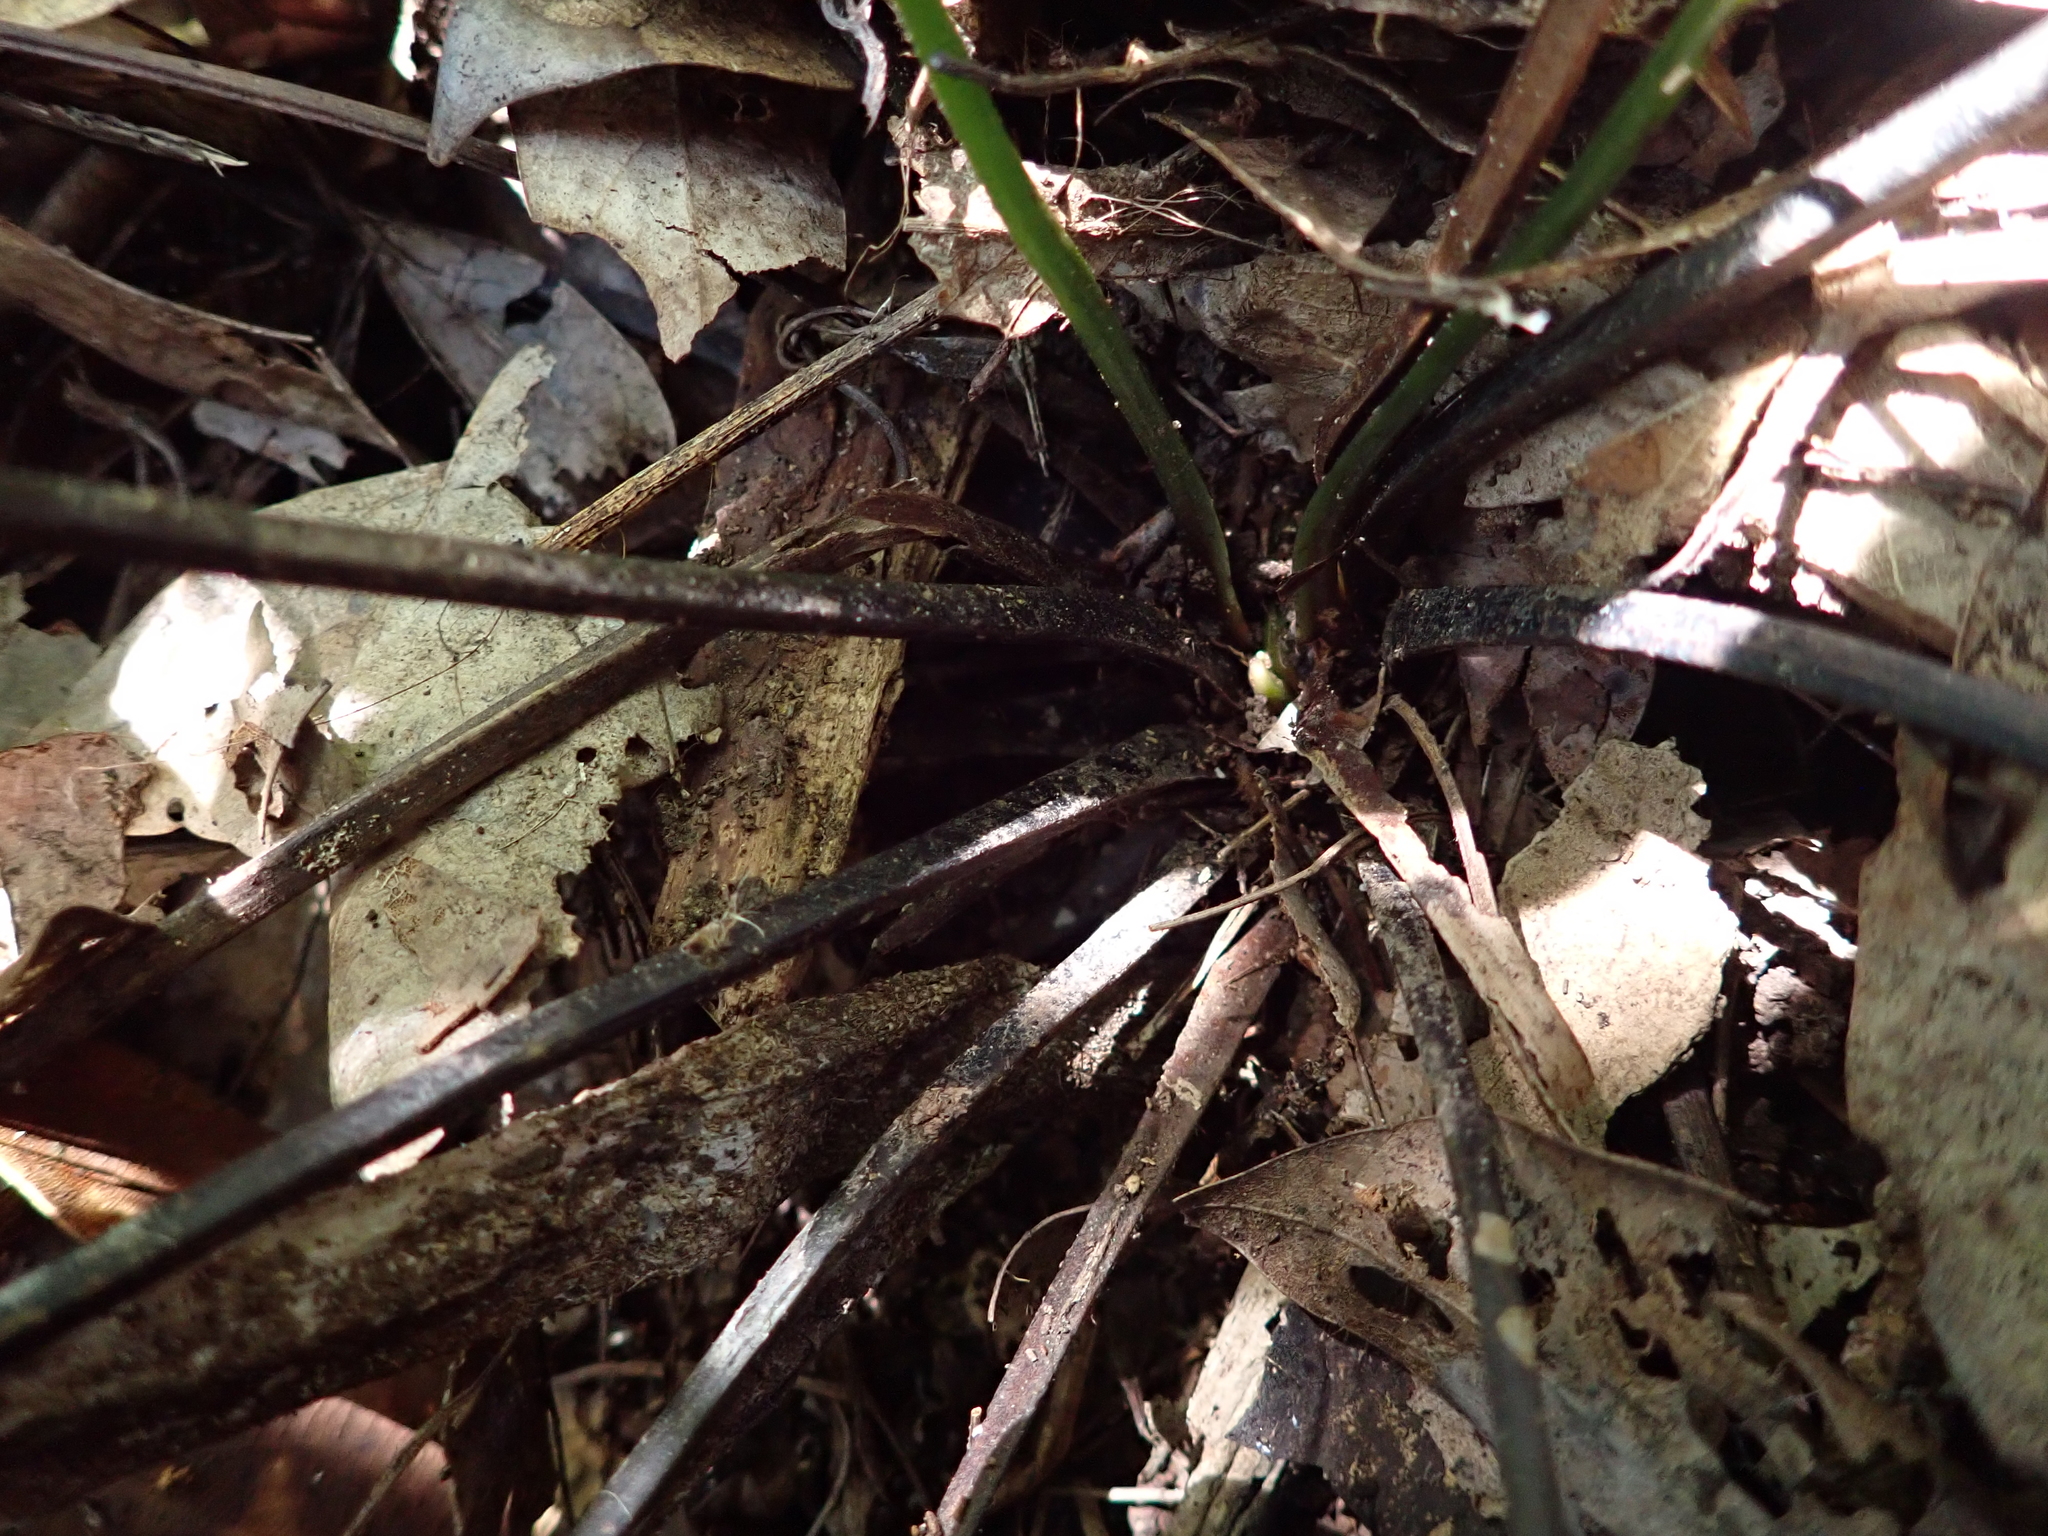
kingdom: Plantae
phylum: Tracheophyta
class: Polypodiopsida
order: Cyatheales
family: Plagiogyriaceae
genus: Plagiogyria
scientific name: Plagiogyria adnata
